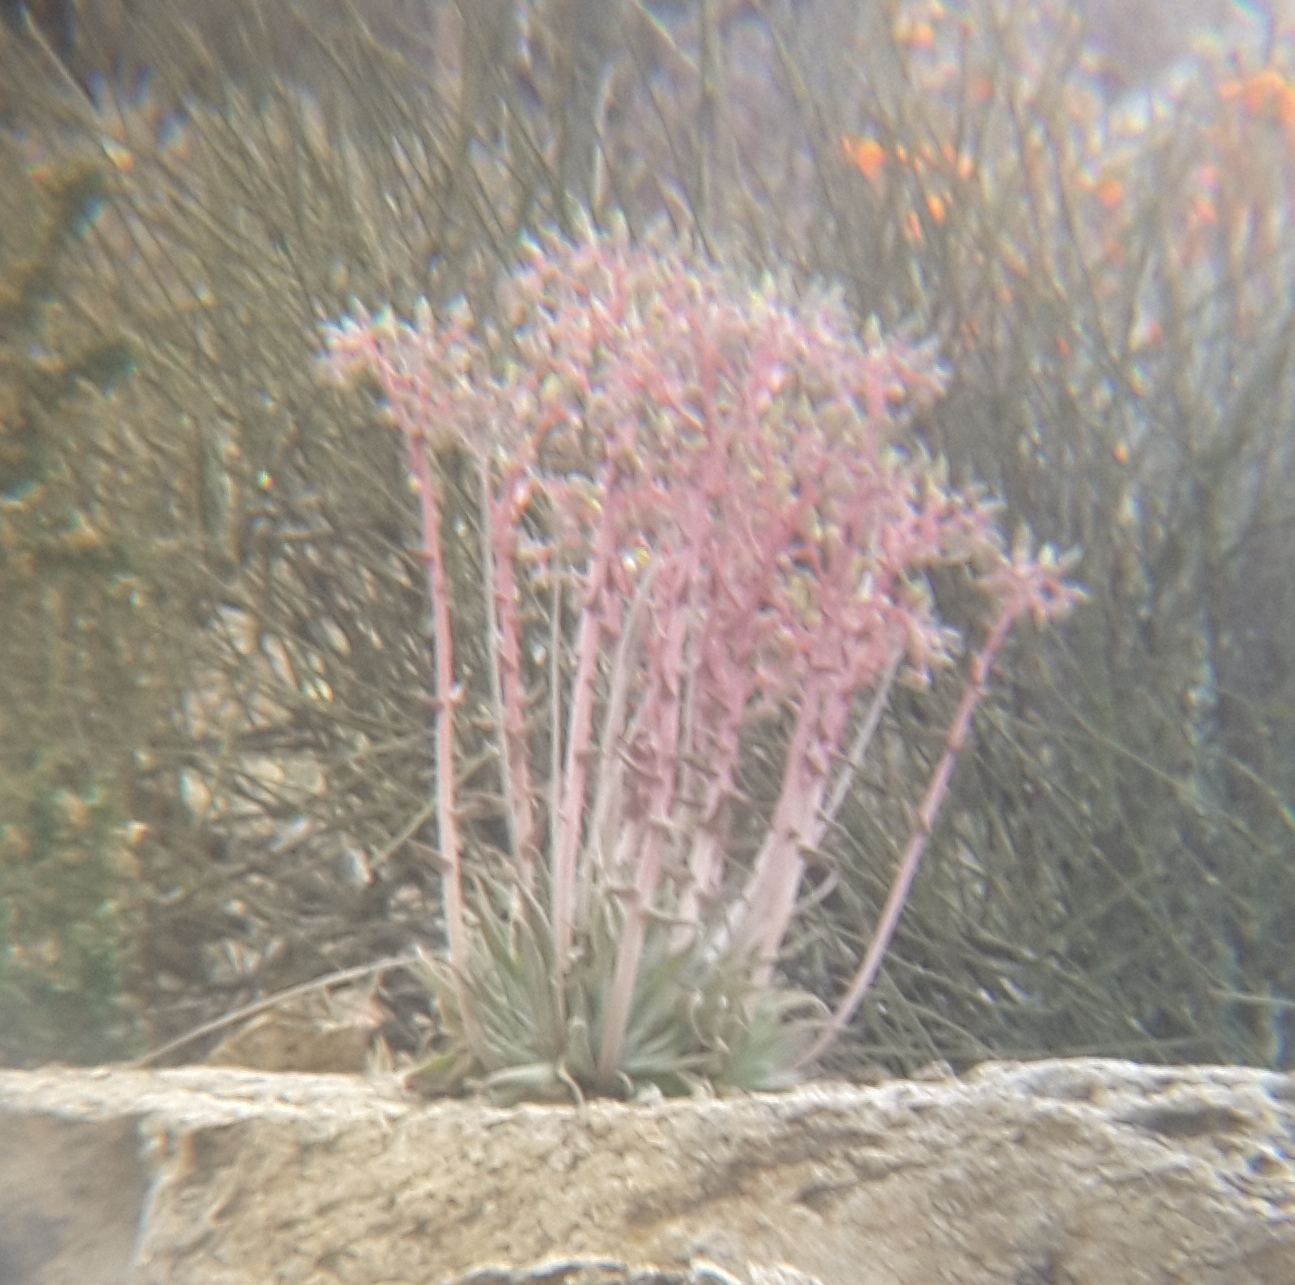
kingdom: Plantae
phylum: Tracheophyta
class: Magnoliopsida
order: Saxifragales
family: Crassulaceae
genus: Dudleya
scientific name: Dudleya saxosa
